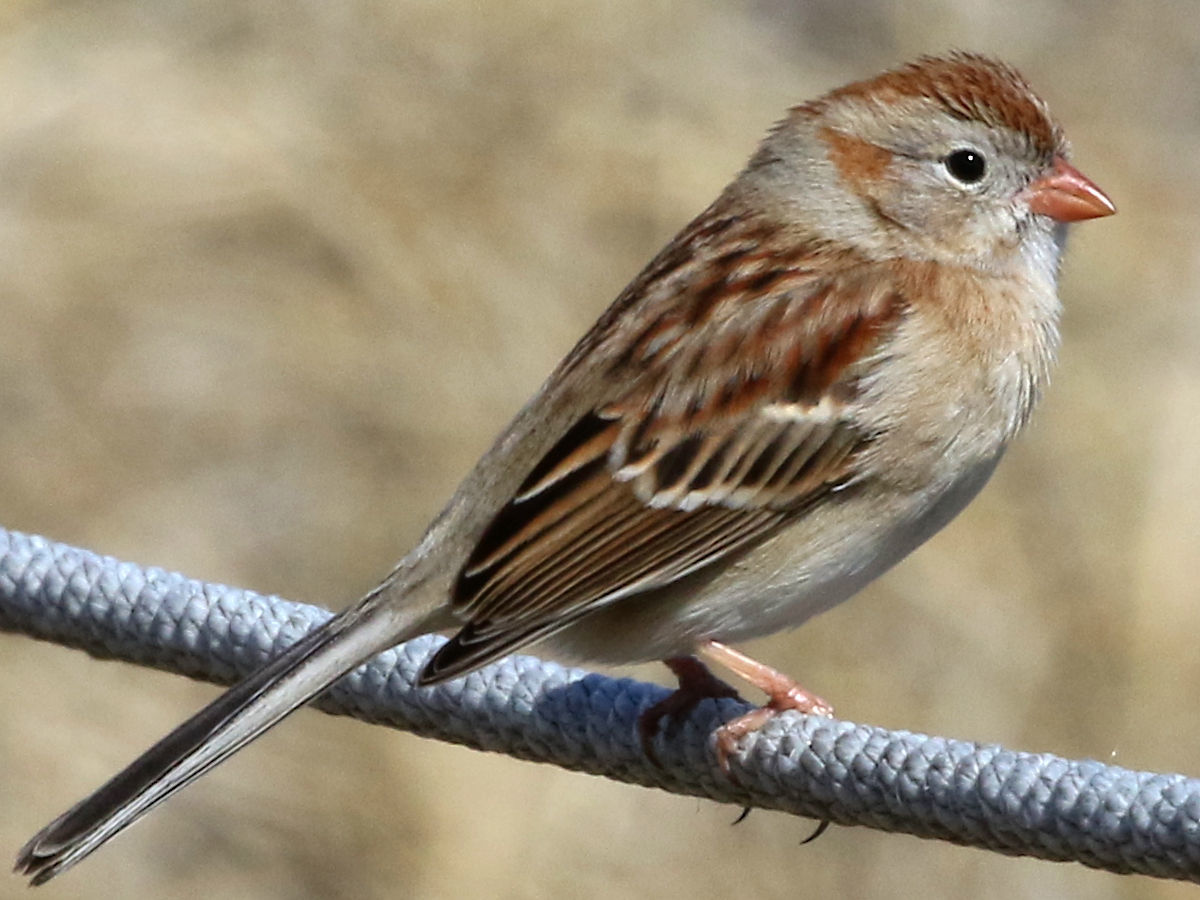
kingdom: Animalia
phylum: Chordata
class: Aves
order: Passeriformes
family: Passerellidae
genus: Spizella
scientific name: Spizella pusilla
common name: Field sparrow
